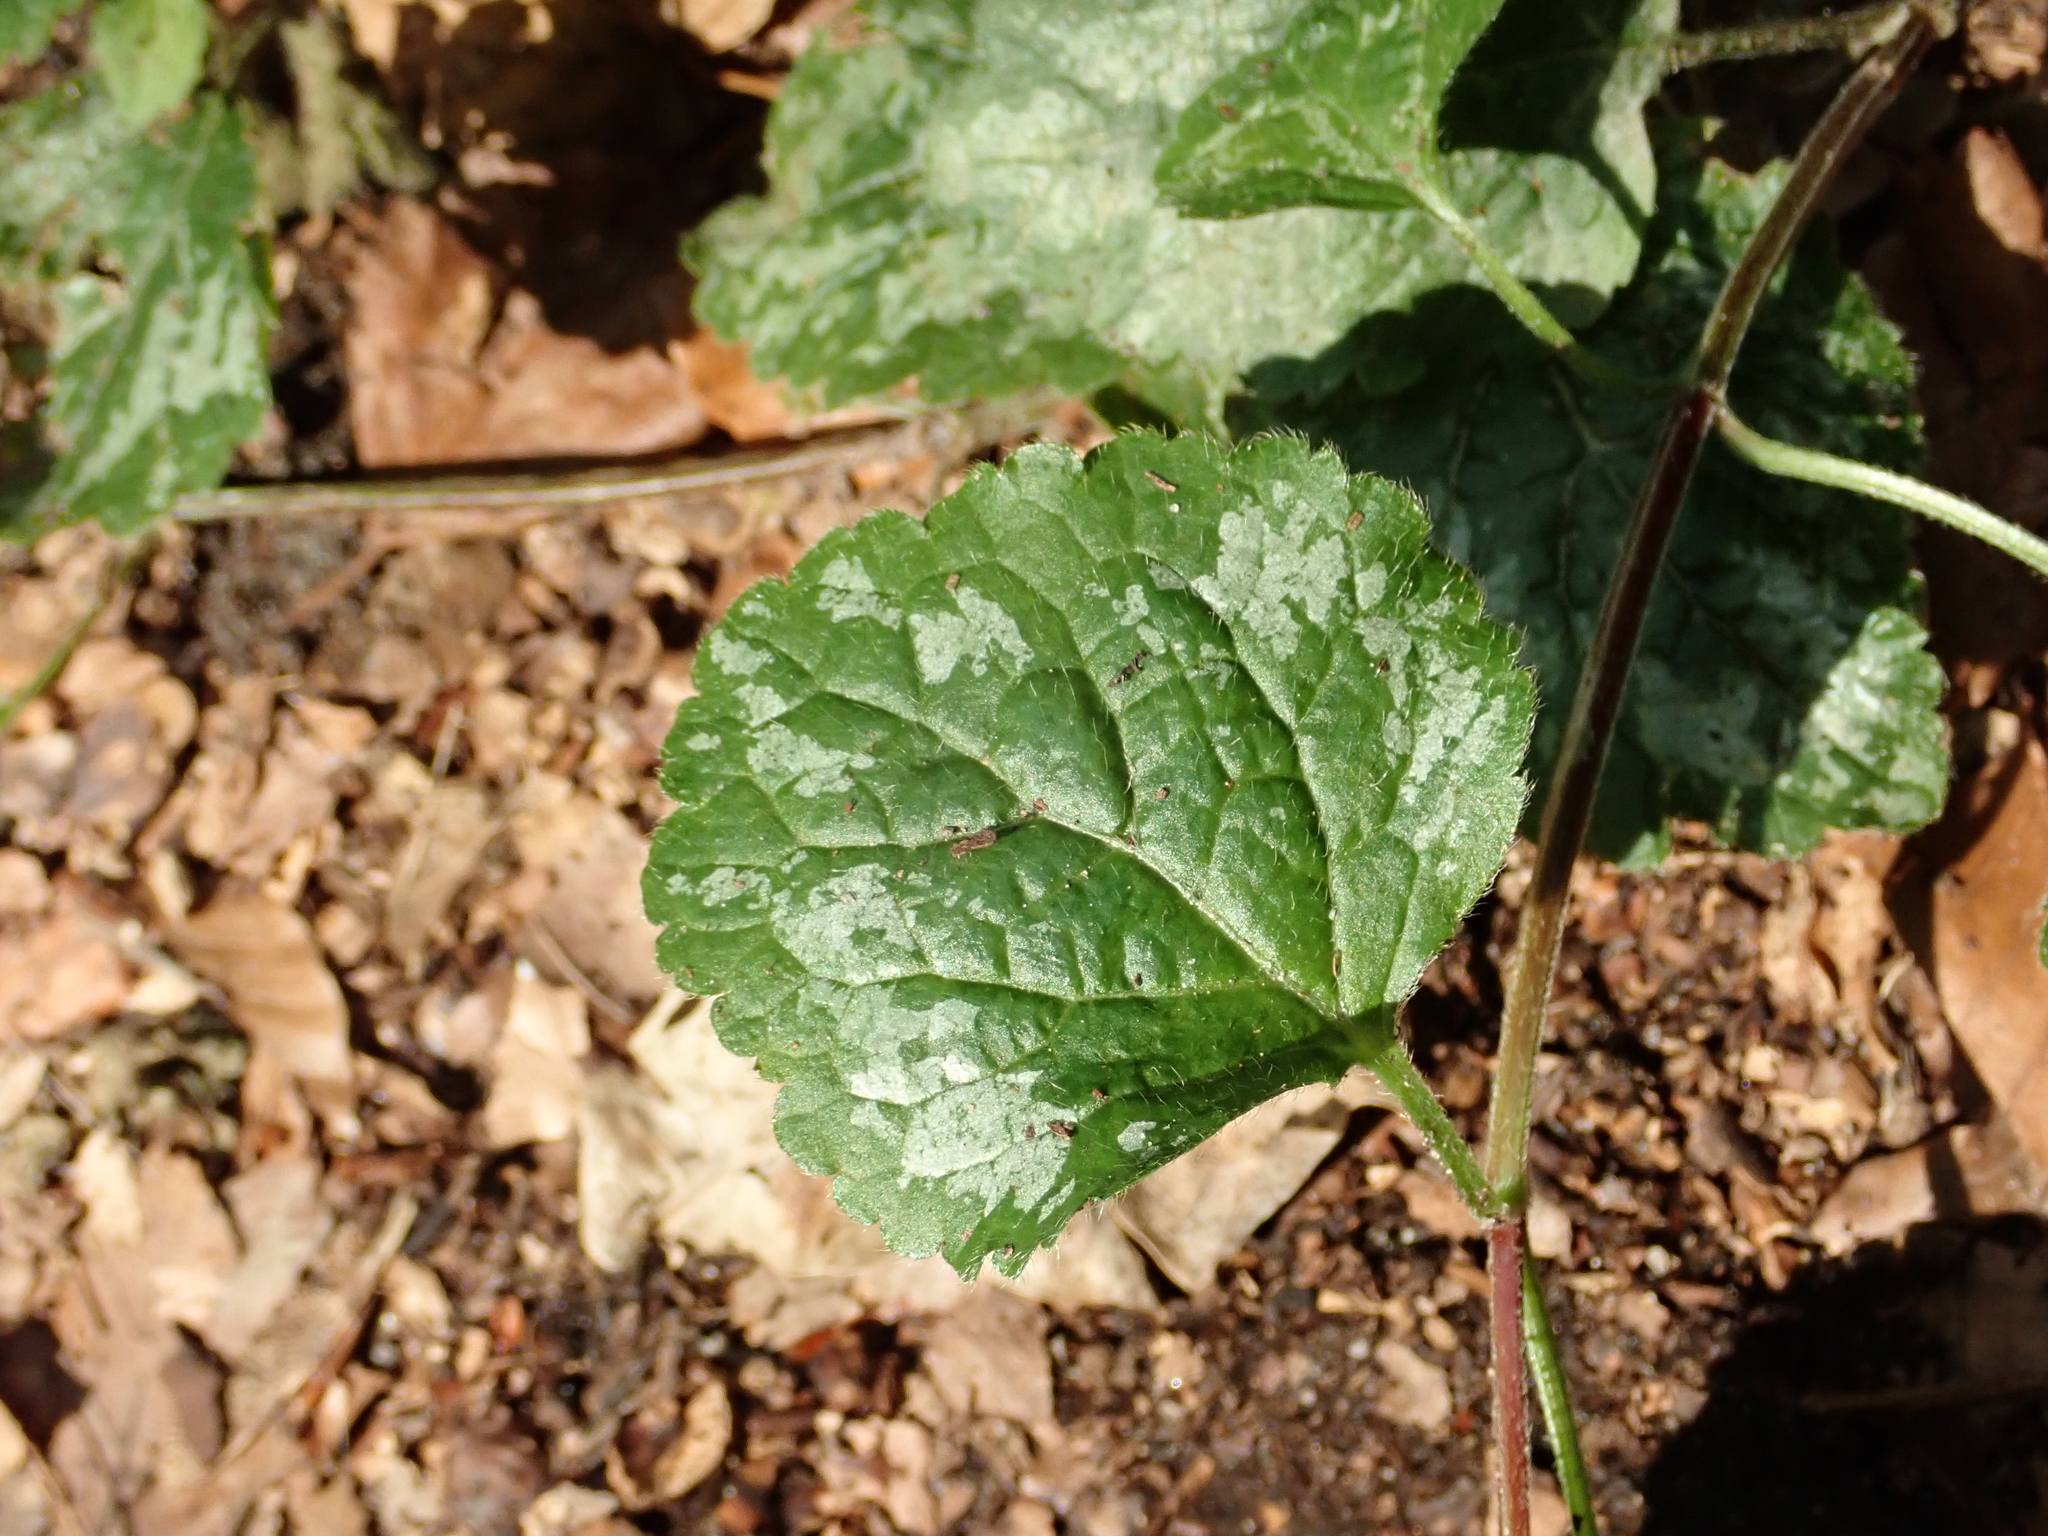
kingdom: Plantae
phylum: Tracheophyta
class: Magnoliopsida
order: Lamiales
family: Lamiaceae
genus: Lamium
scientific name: Lamium galeobdolon
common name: Yellow archangel
